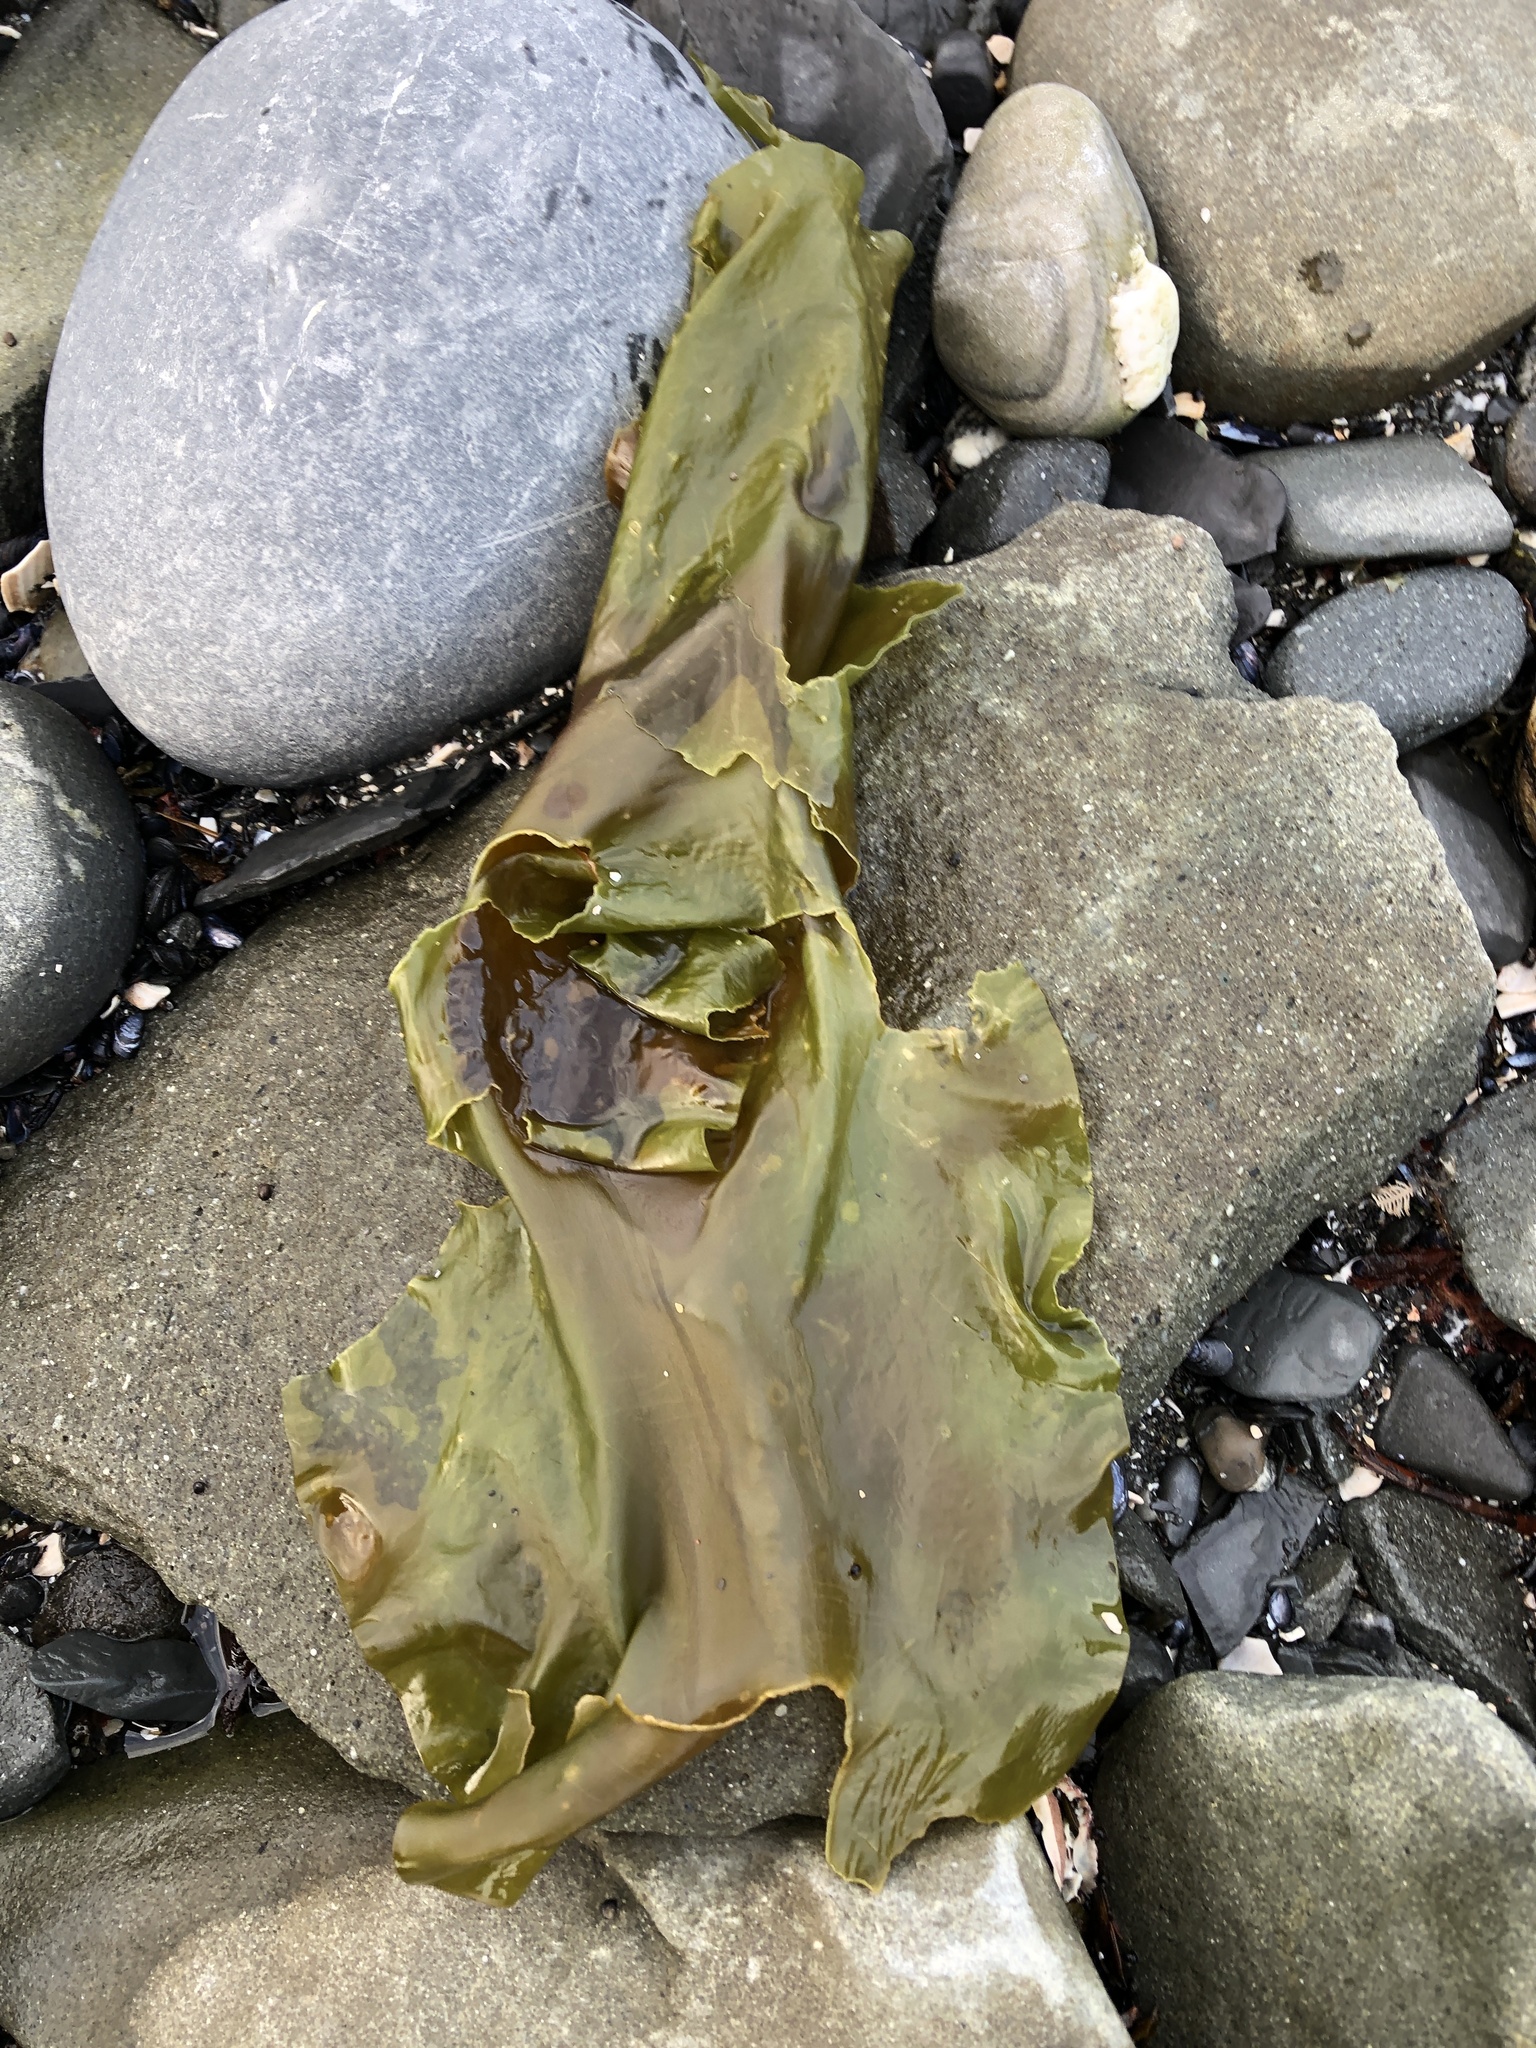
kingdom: Chromista
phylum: Ochrophyta
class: Phaeophyceae
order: Laminariales
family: Laminariaceae
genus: Saccharina
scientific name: Saccharina latissima
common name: Poor man's weather glass
